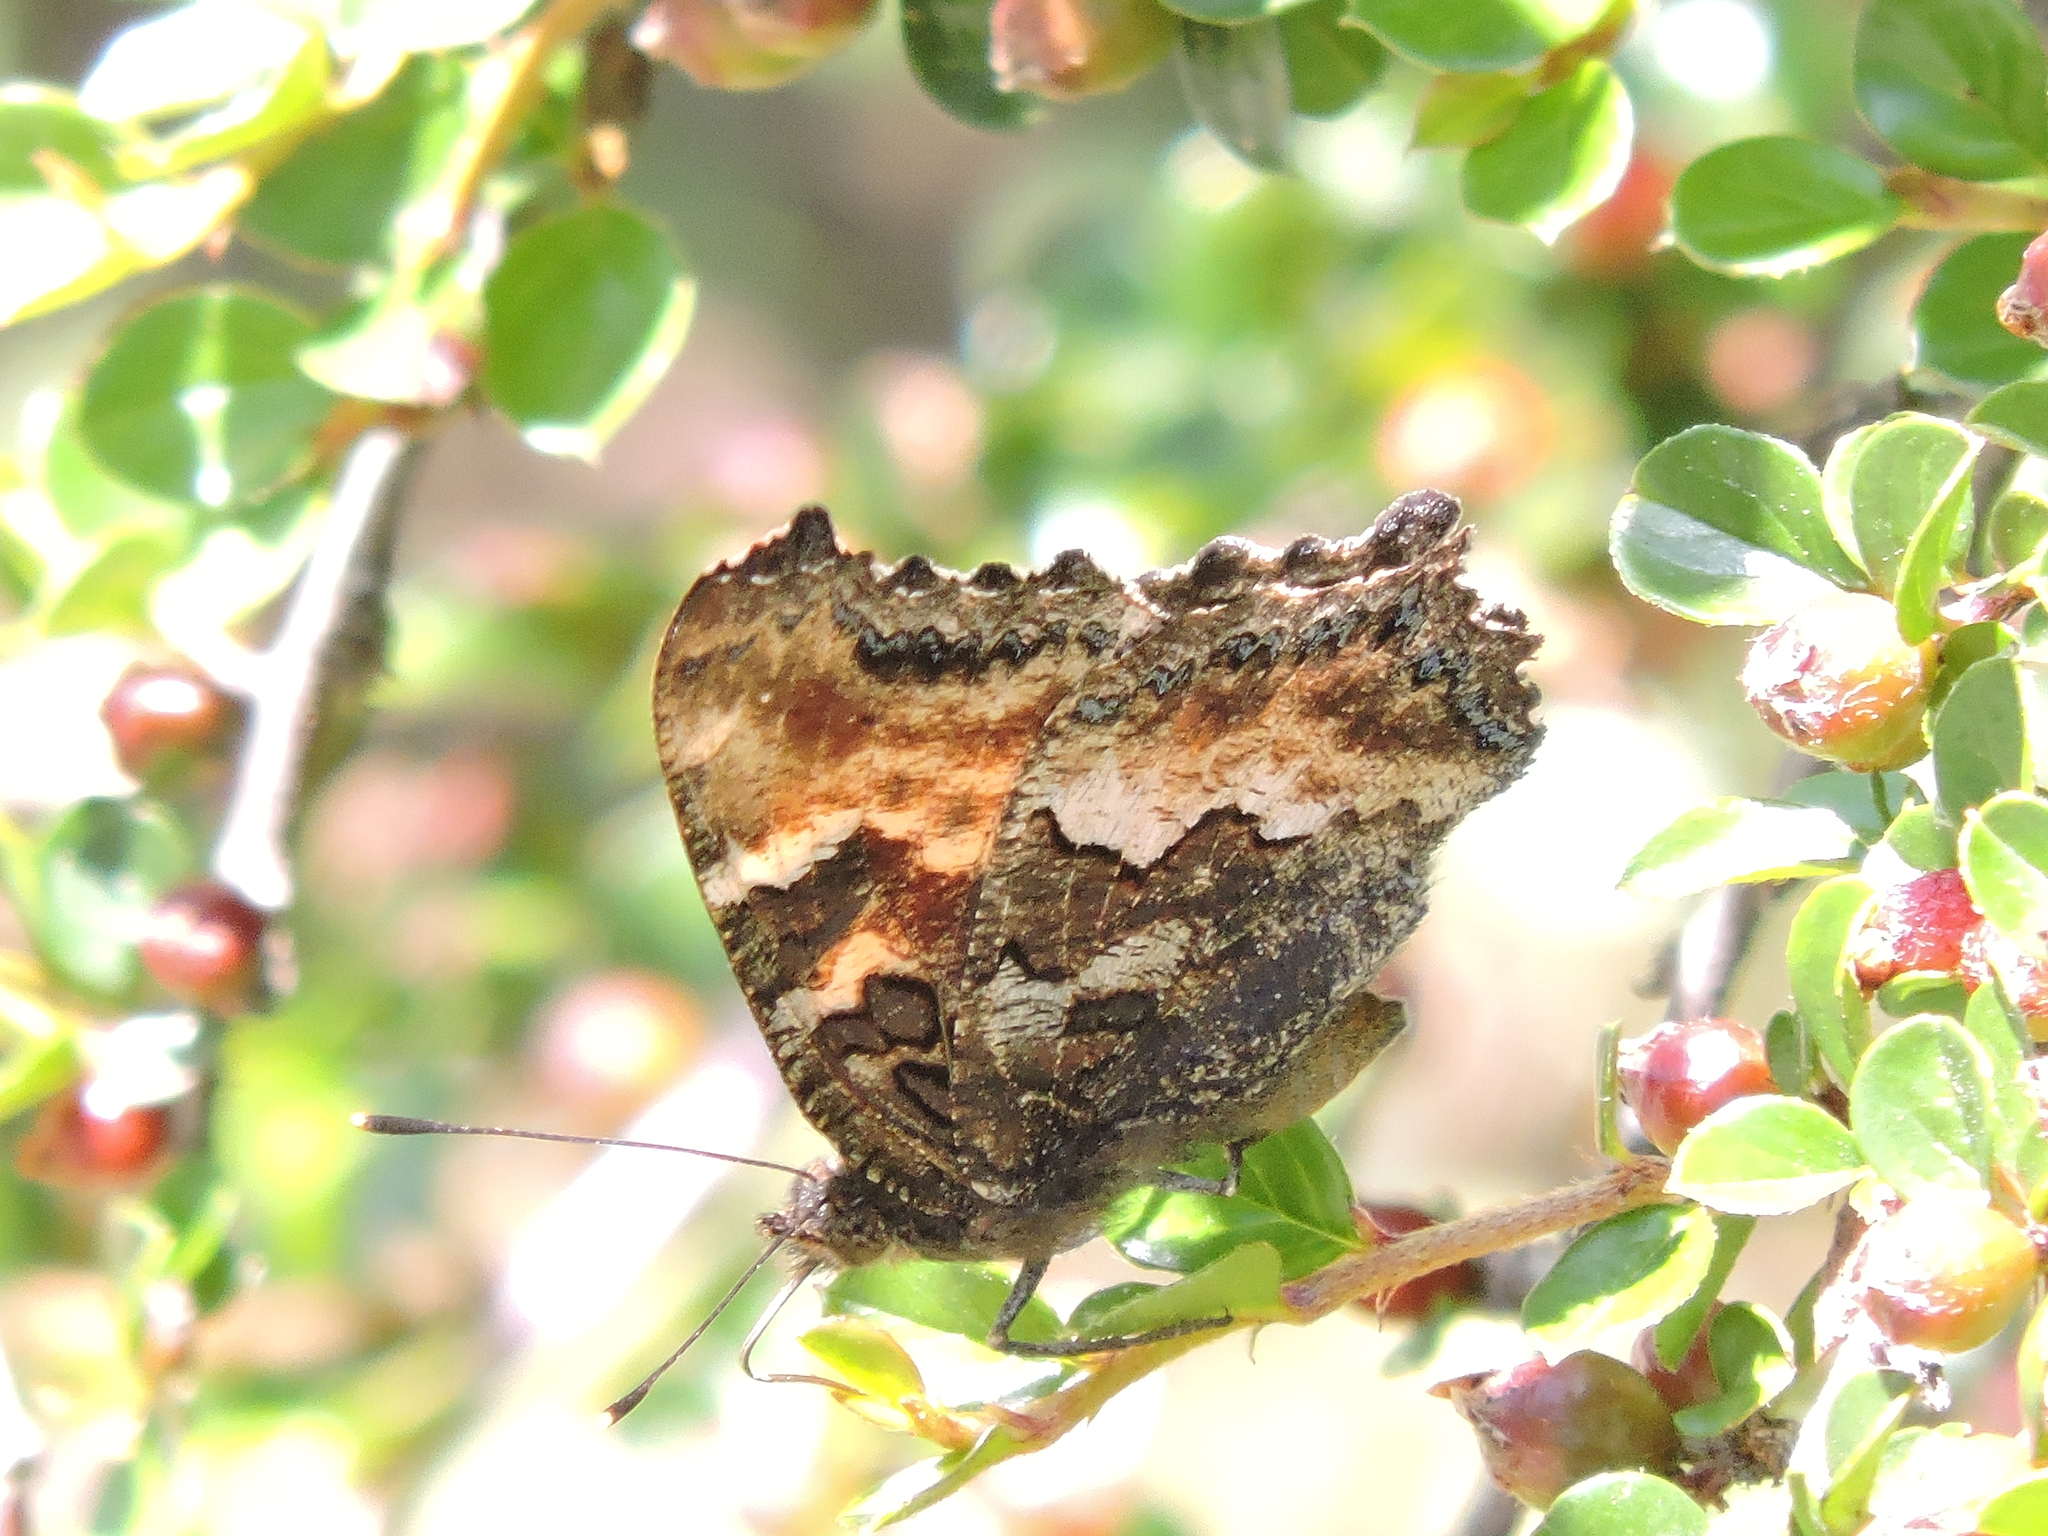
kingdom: Animalia
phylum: Arthropoda
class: Insecta
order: Lepidoptera
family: Nymphalidae
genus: Nymphalis
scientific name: Nymphalis californica
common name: California tortoiseshell
